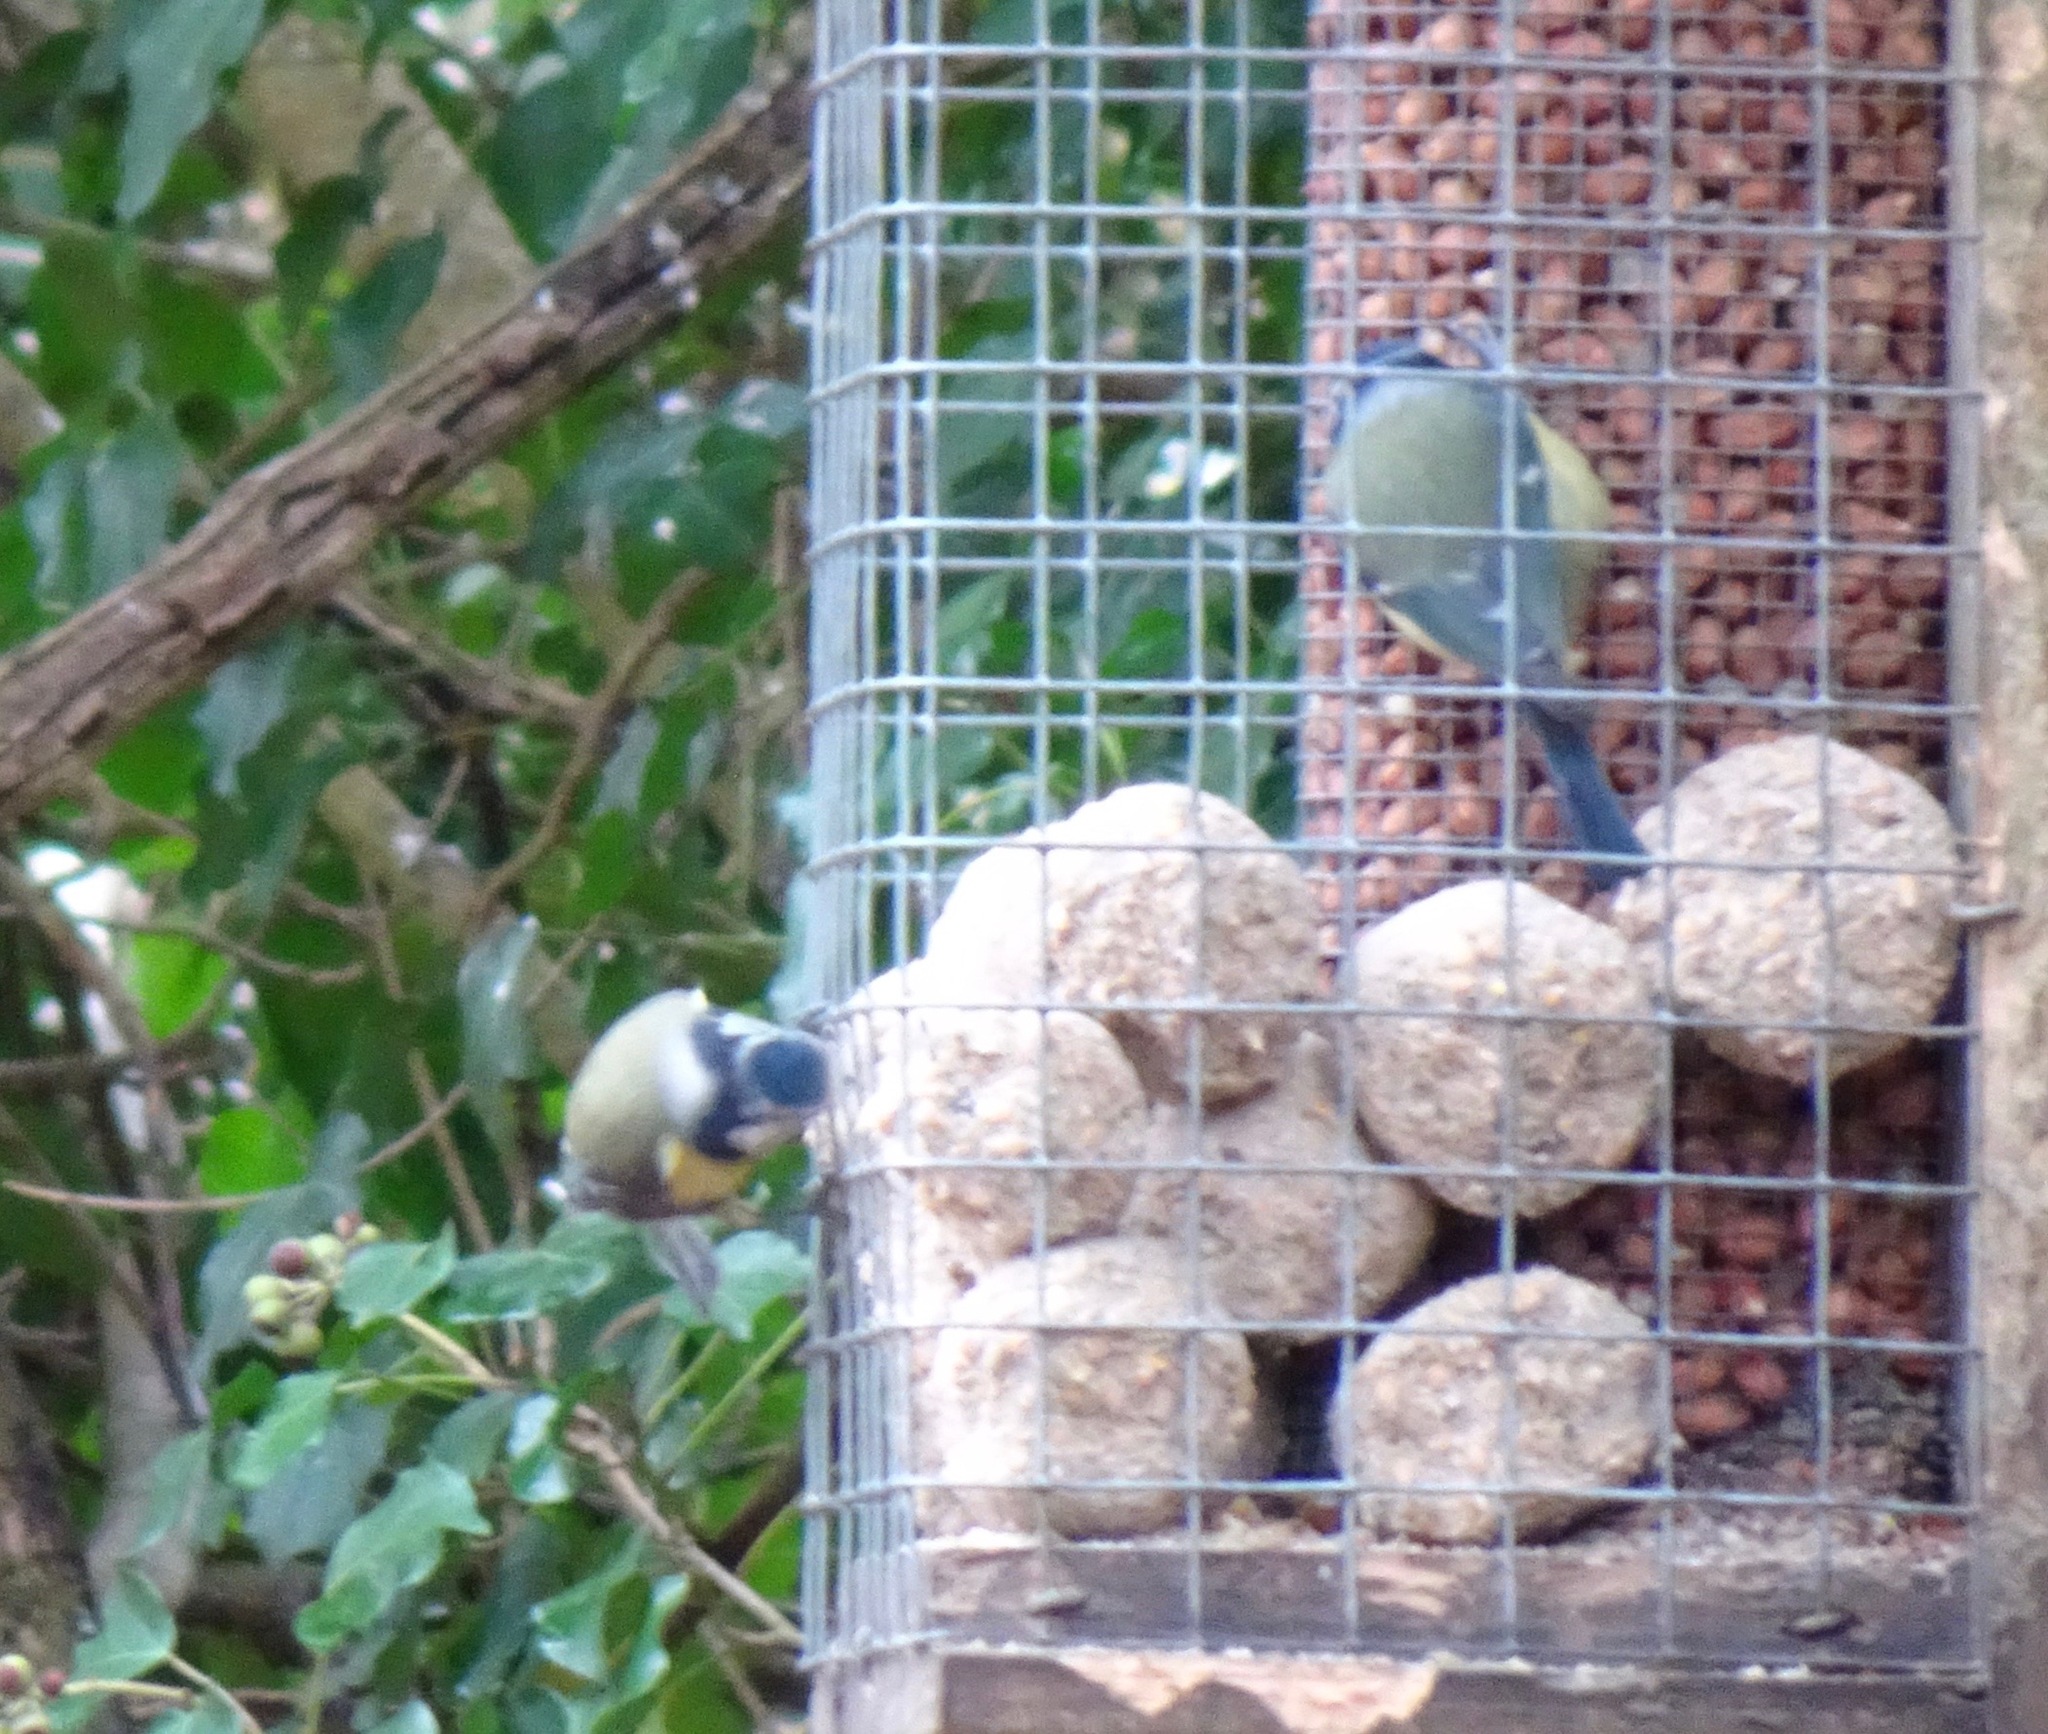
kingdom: Animalia
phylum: Chordata
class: Aves
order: Passeriformes
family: Paridae
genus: Cyanistes
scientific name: Cyanistes caeruleus
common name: Eurasian blue tit
